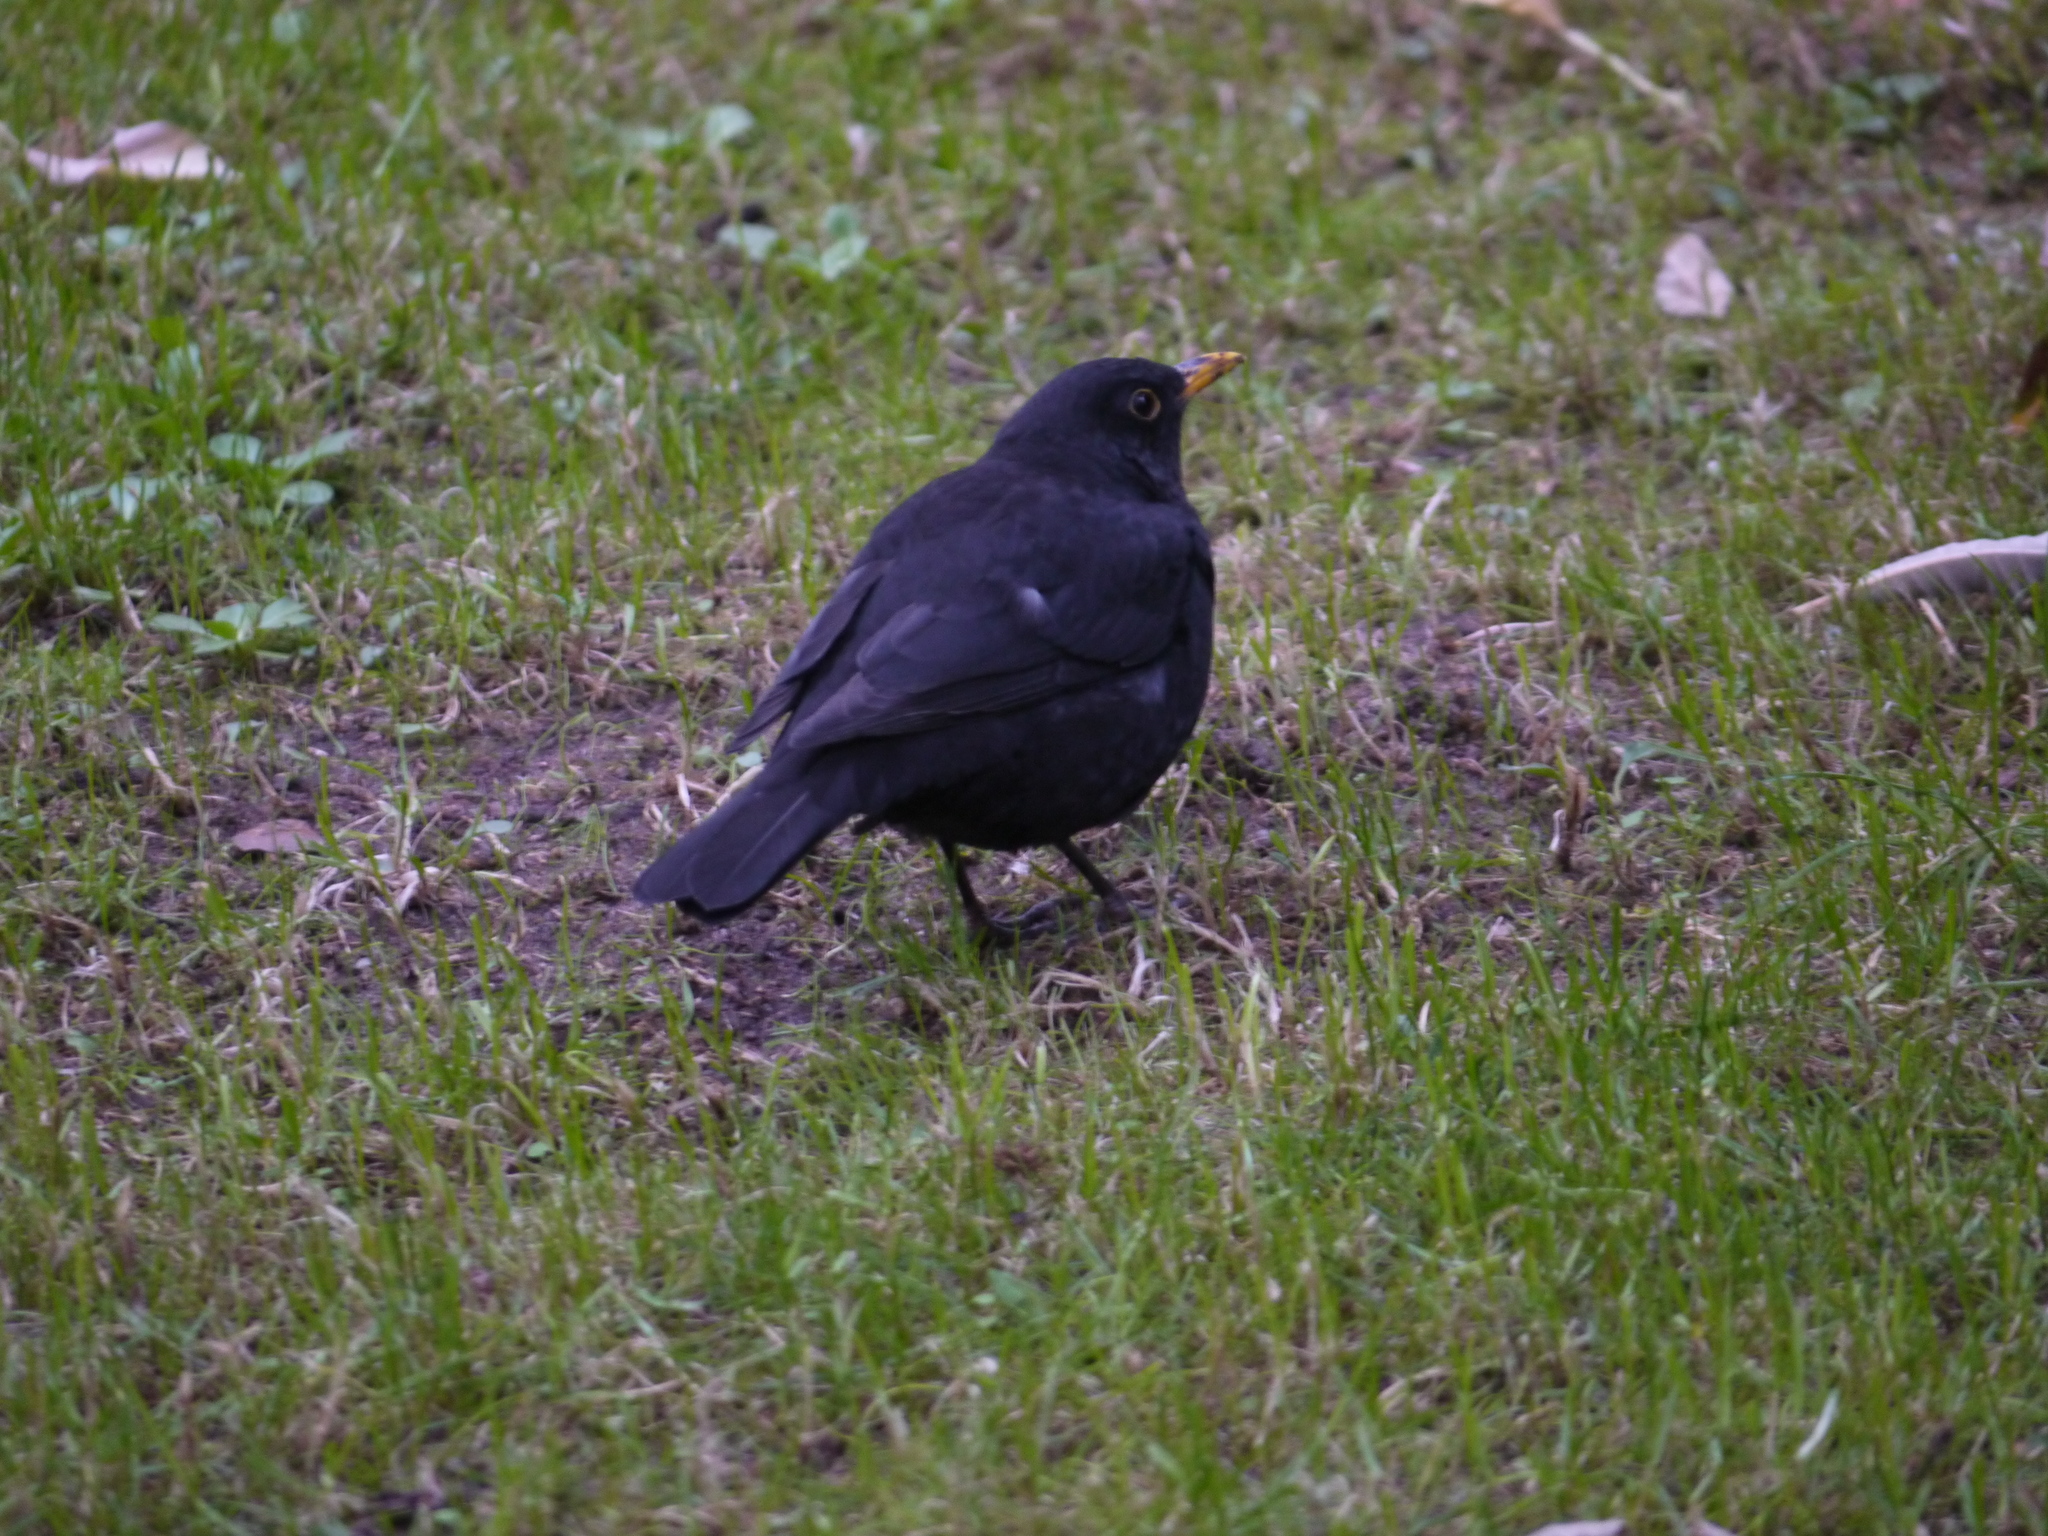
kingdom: Animalia
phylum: Chordata
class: Aves
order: Passeriformes
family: Turdidae
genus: Turdus
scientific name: Turdus merula
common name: Common blackbird
